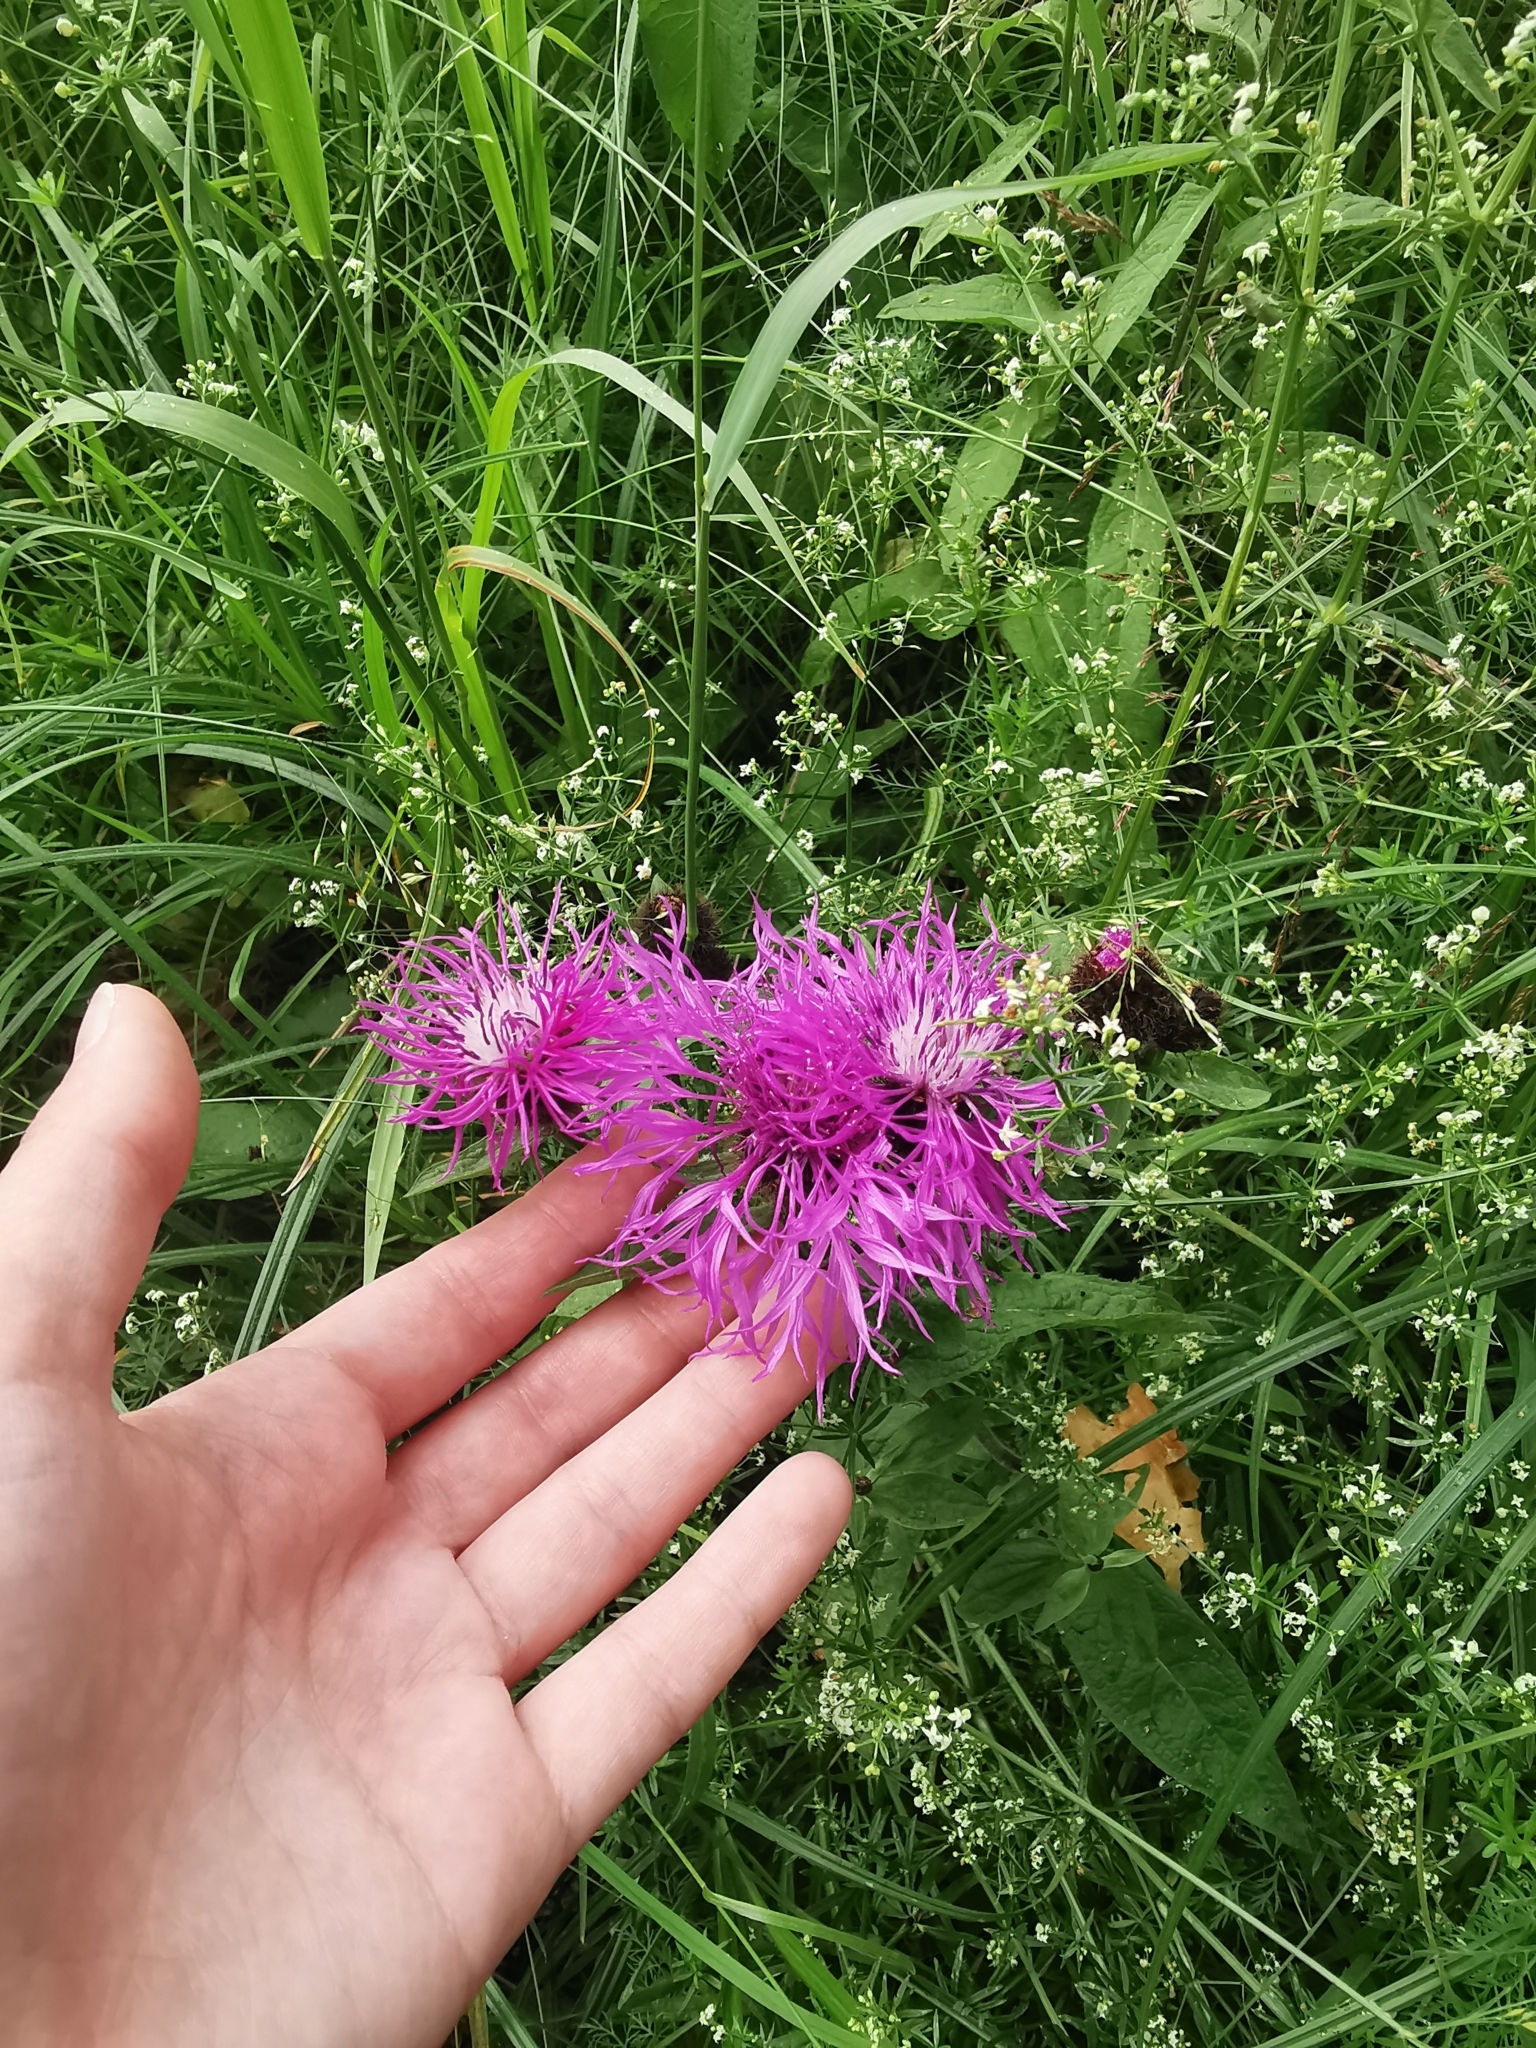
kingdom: Plantae
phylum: Tracheophyta
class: Magnoliopsida
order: Asterales
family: Asteraceae
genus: Centaurea
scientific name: Centaurea pseudophrygia
